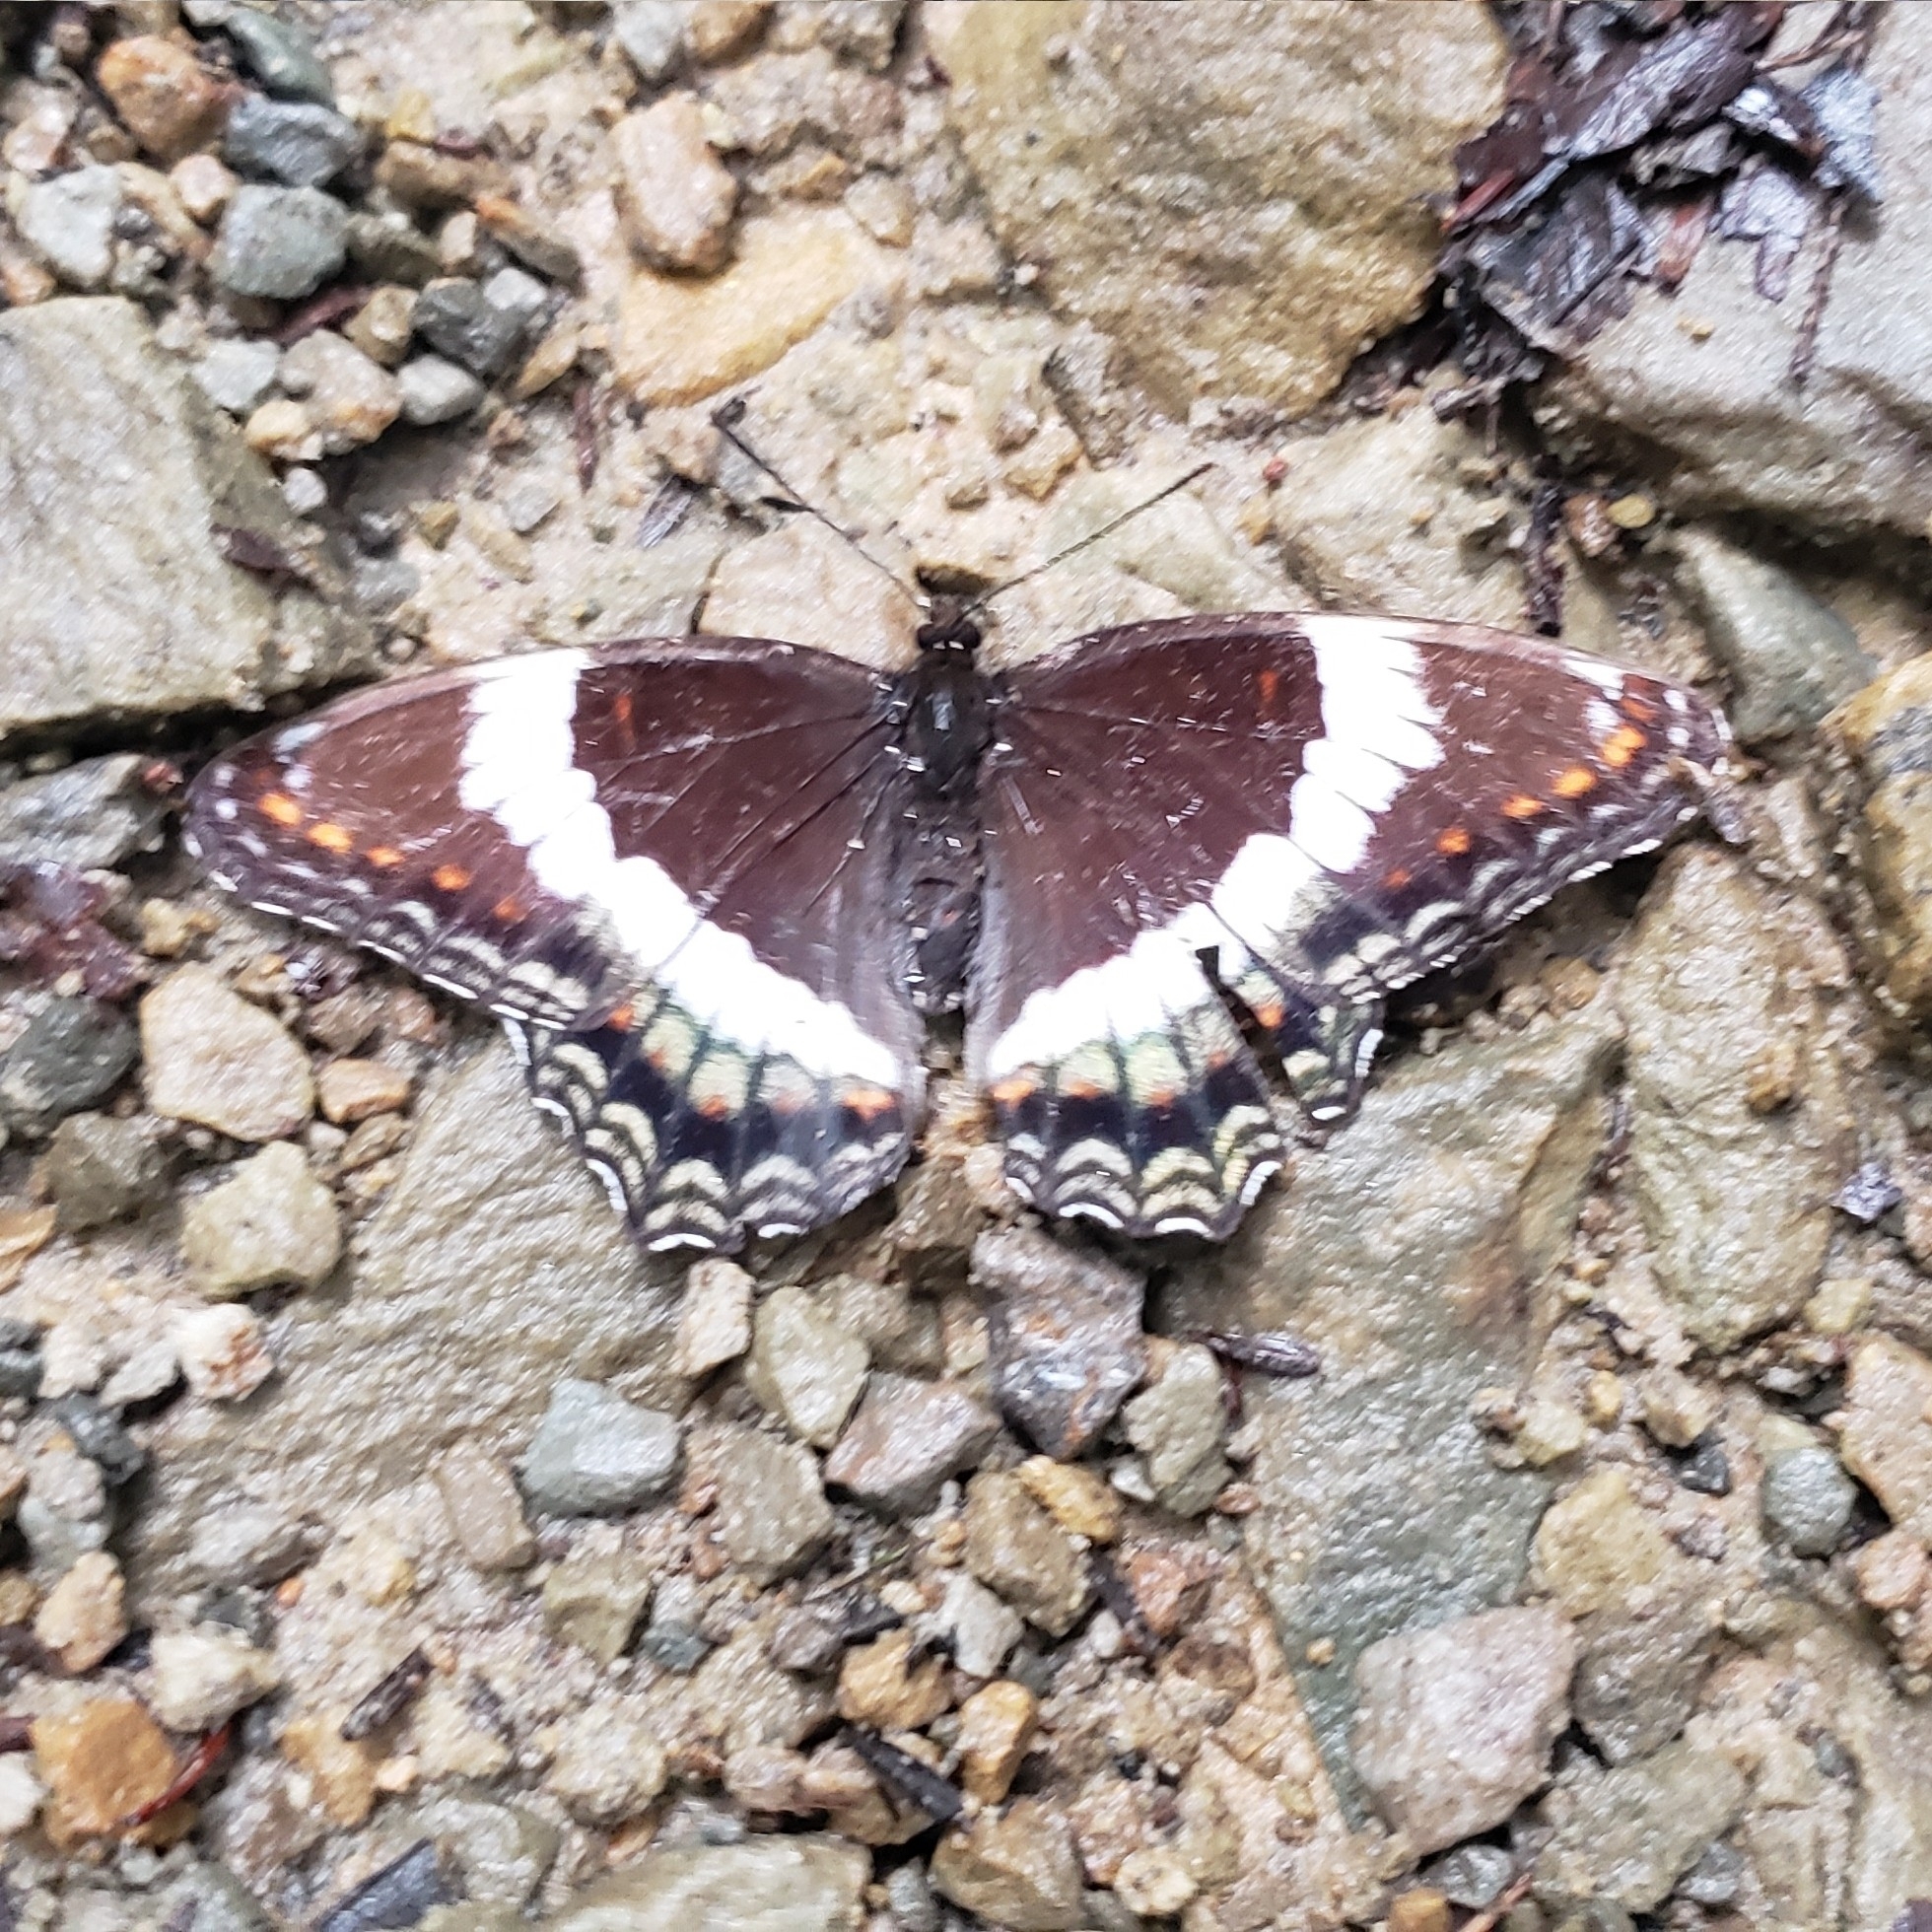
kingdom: Animalia
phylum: Arthropoda
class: Insecta
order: Lepidoptera
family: Nymphalidae
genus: Limenitis
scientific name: Limenitis arthemis
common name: Red-spotted admiral
